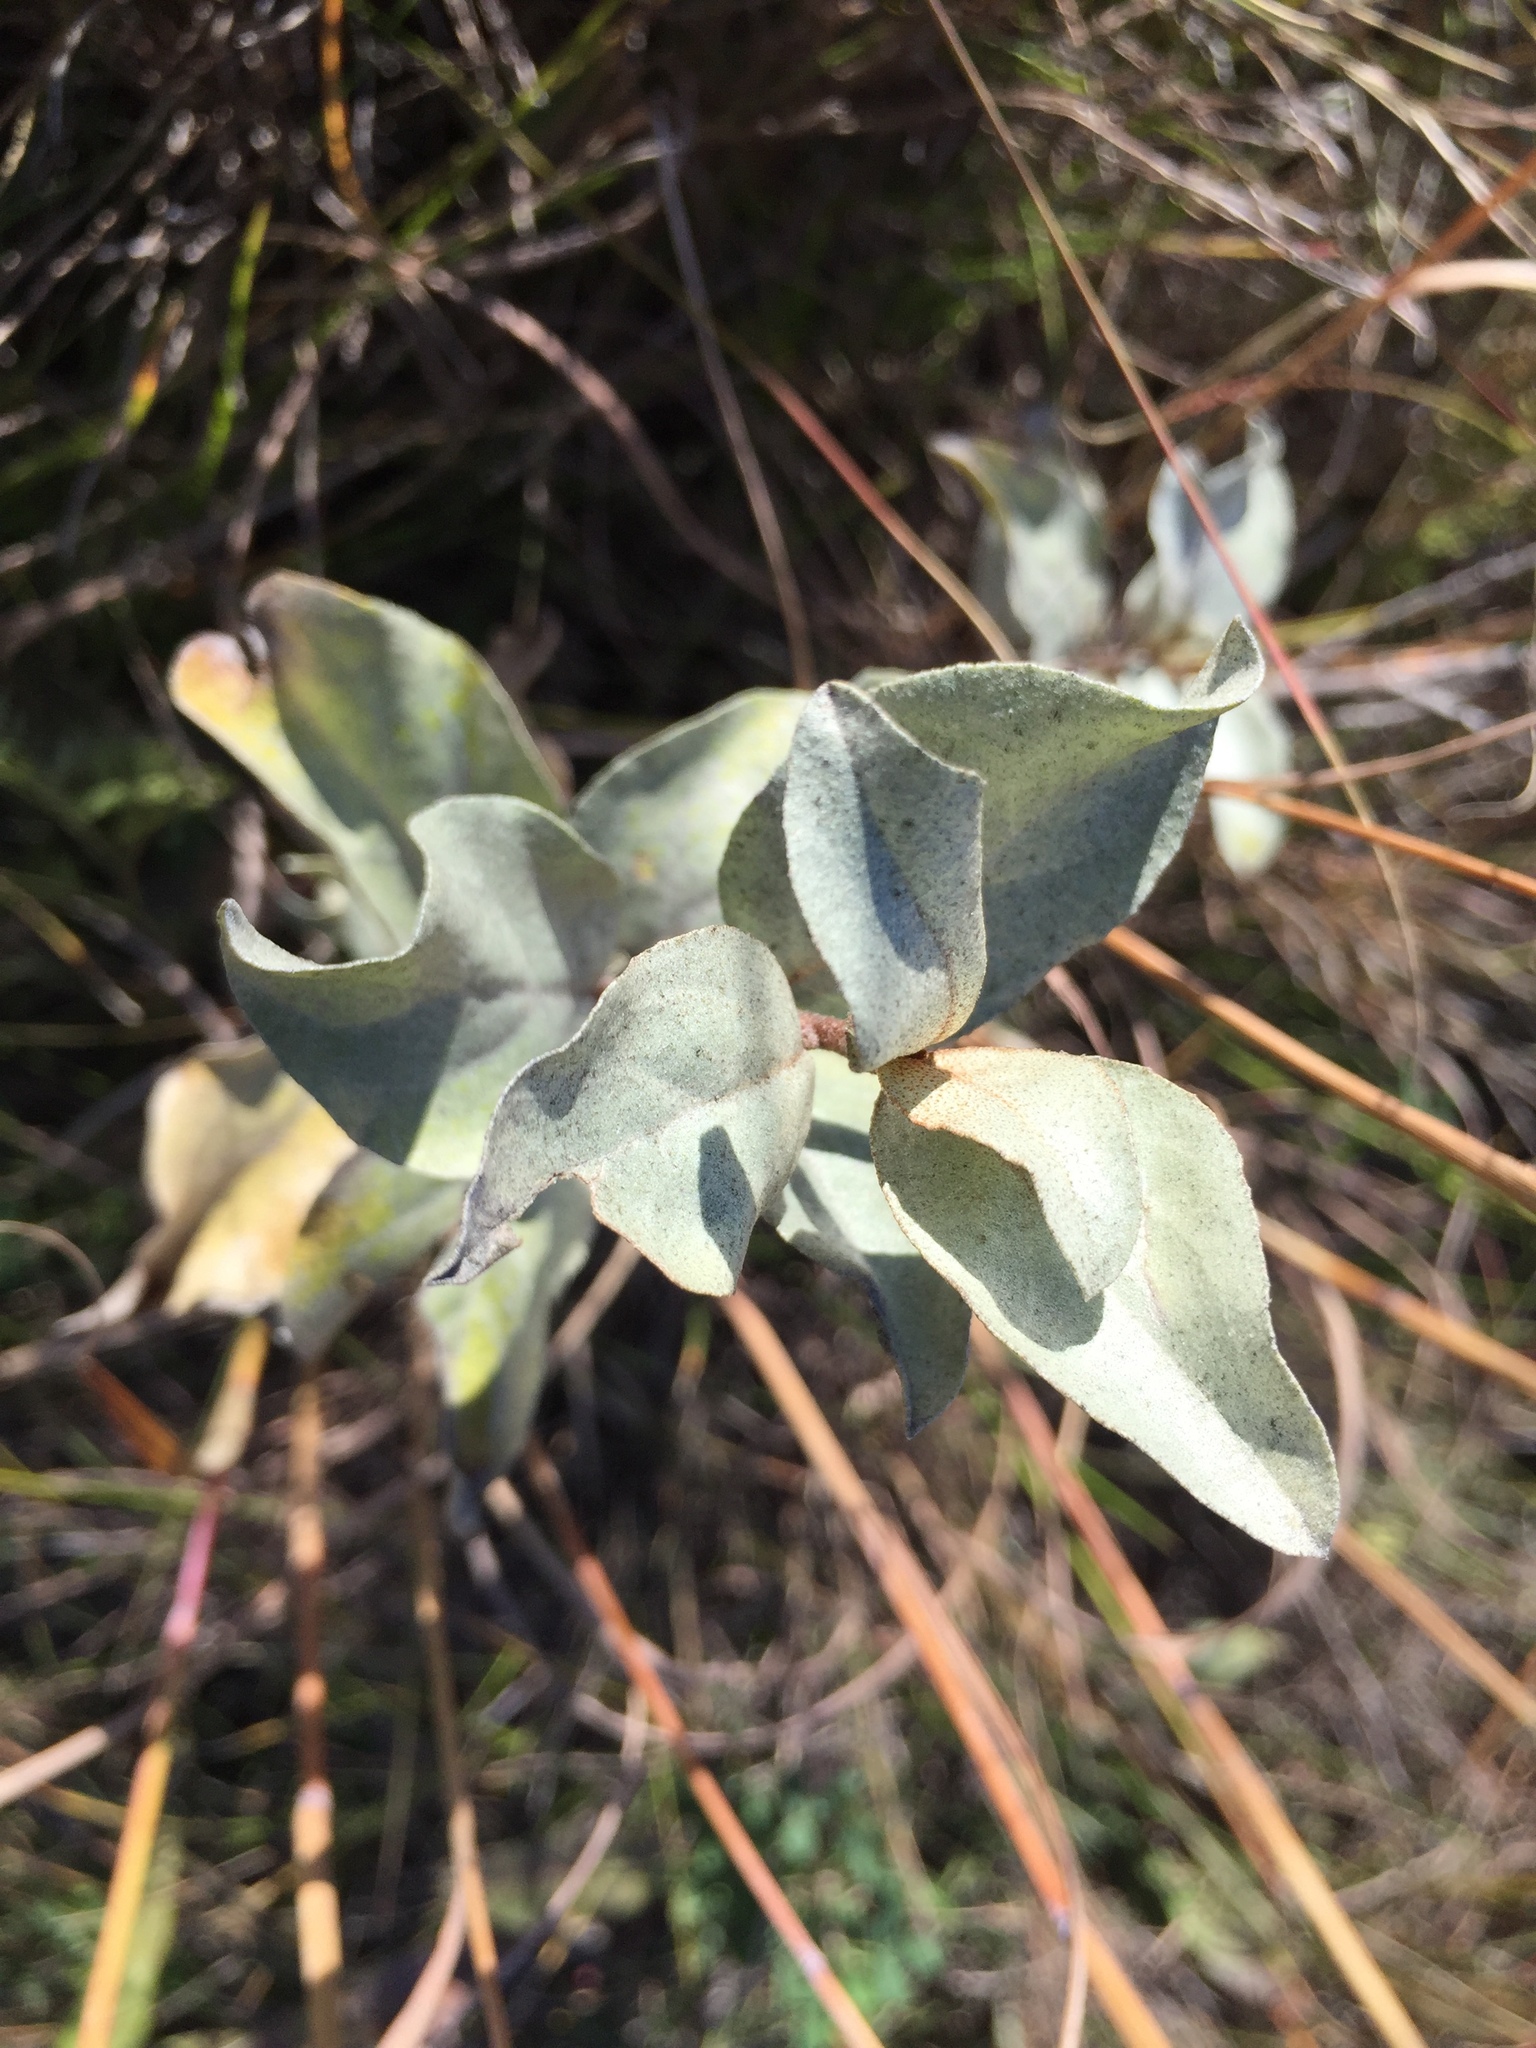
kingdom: Plantae
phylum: Tracheophyta
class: Magnoliopsida
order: Rosales
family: Elaeagnaceae
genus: Elaeagnus
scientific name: Elaeagnus commutata
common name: Silverberry
